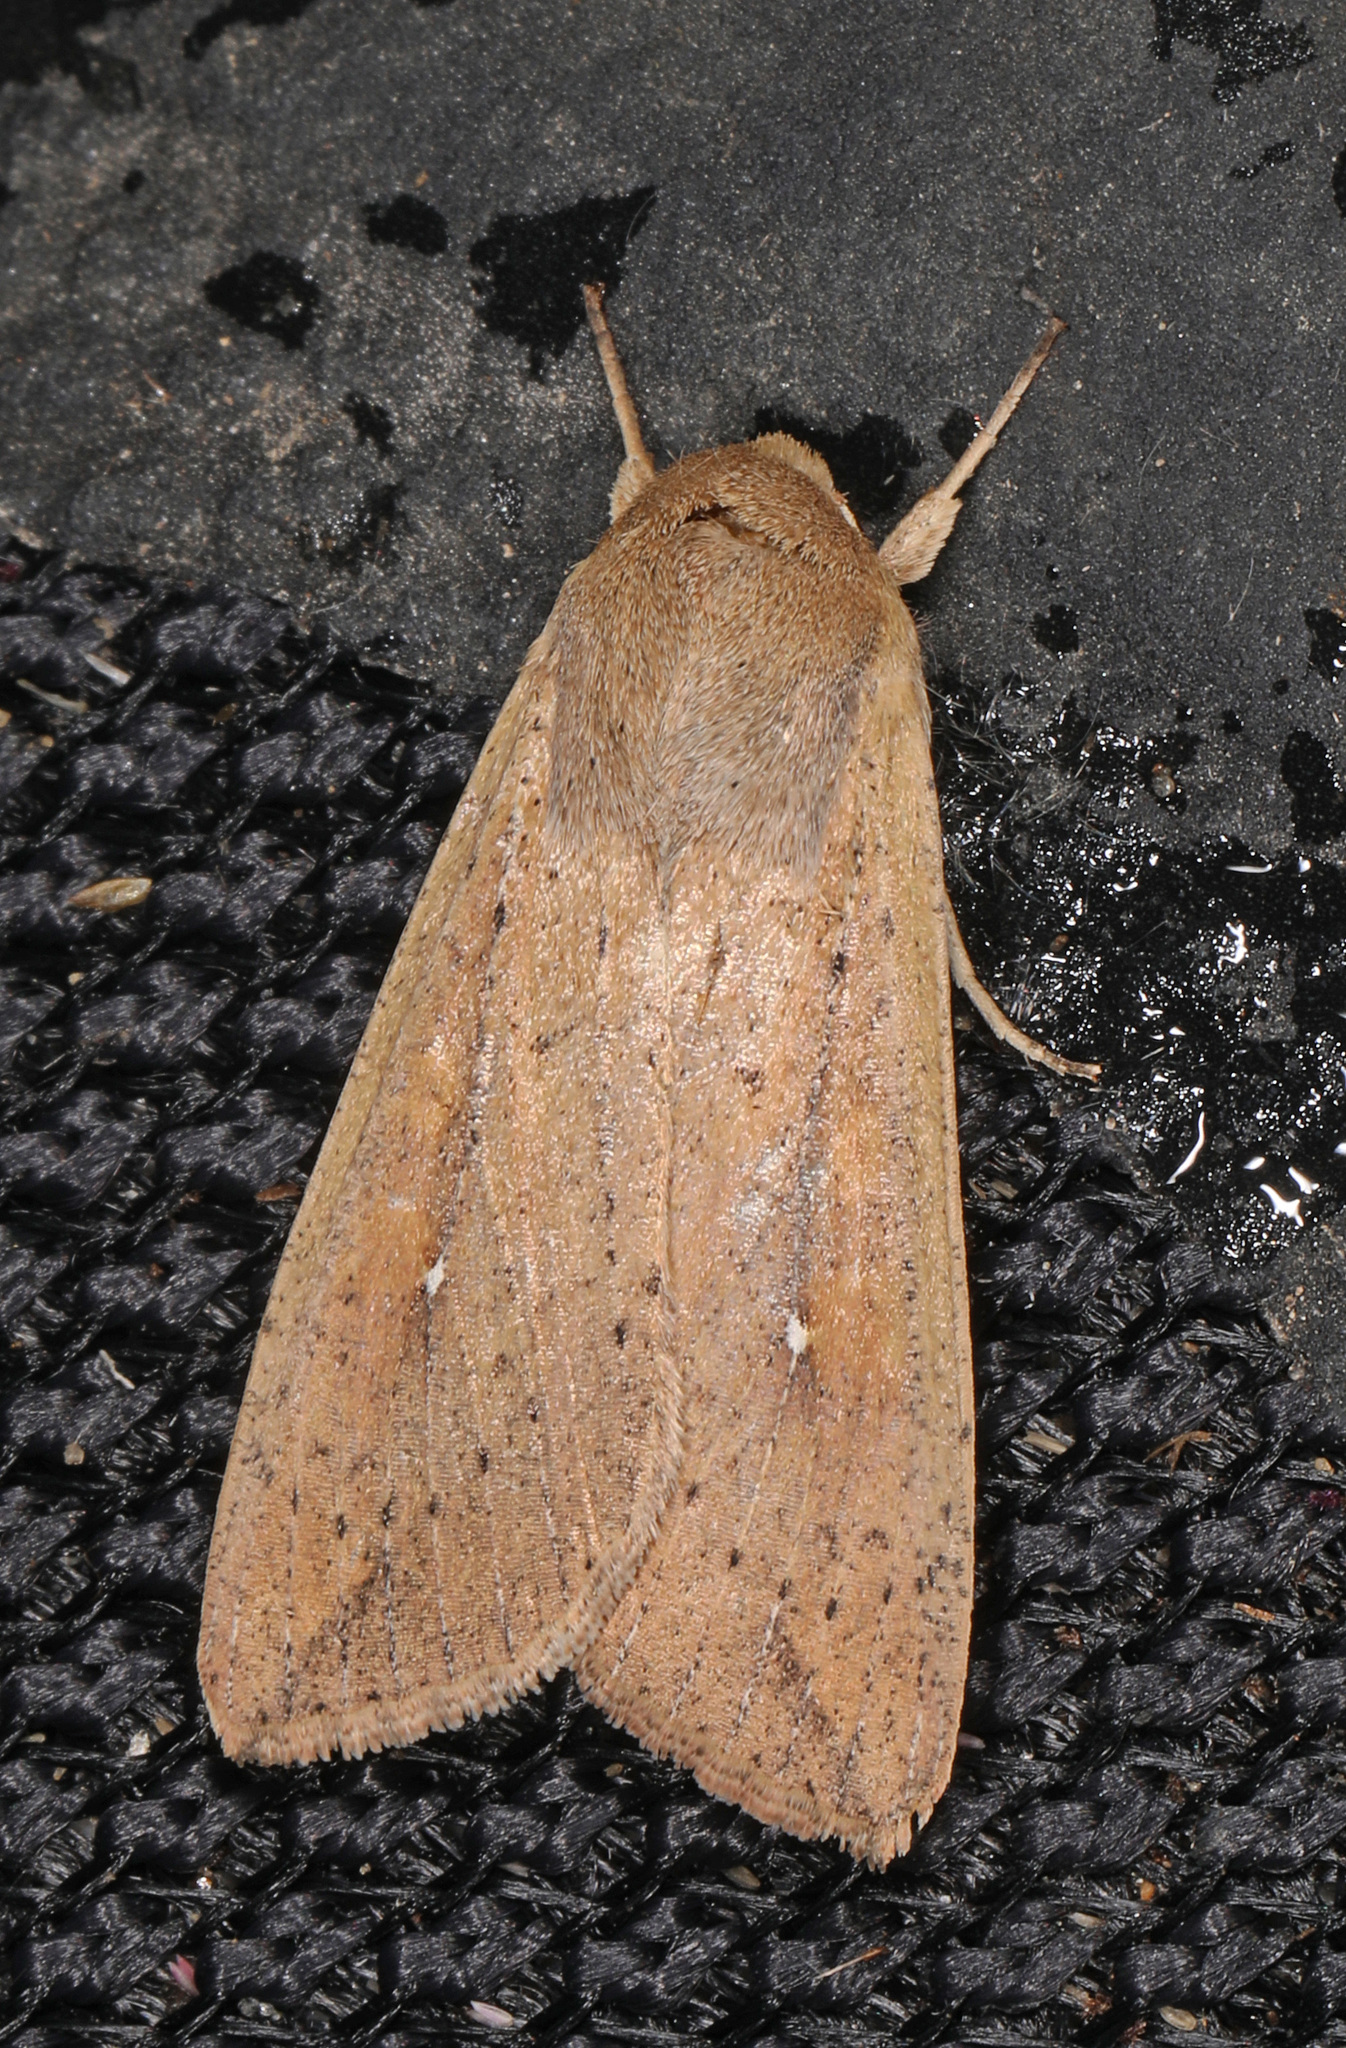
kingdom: Animalia
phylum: Arthropoda
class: Insecta
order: Lepidoptera
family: Noctuidae
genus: Mythimna
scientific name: Mythimna unipuncta
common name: White-speck
